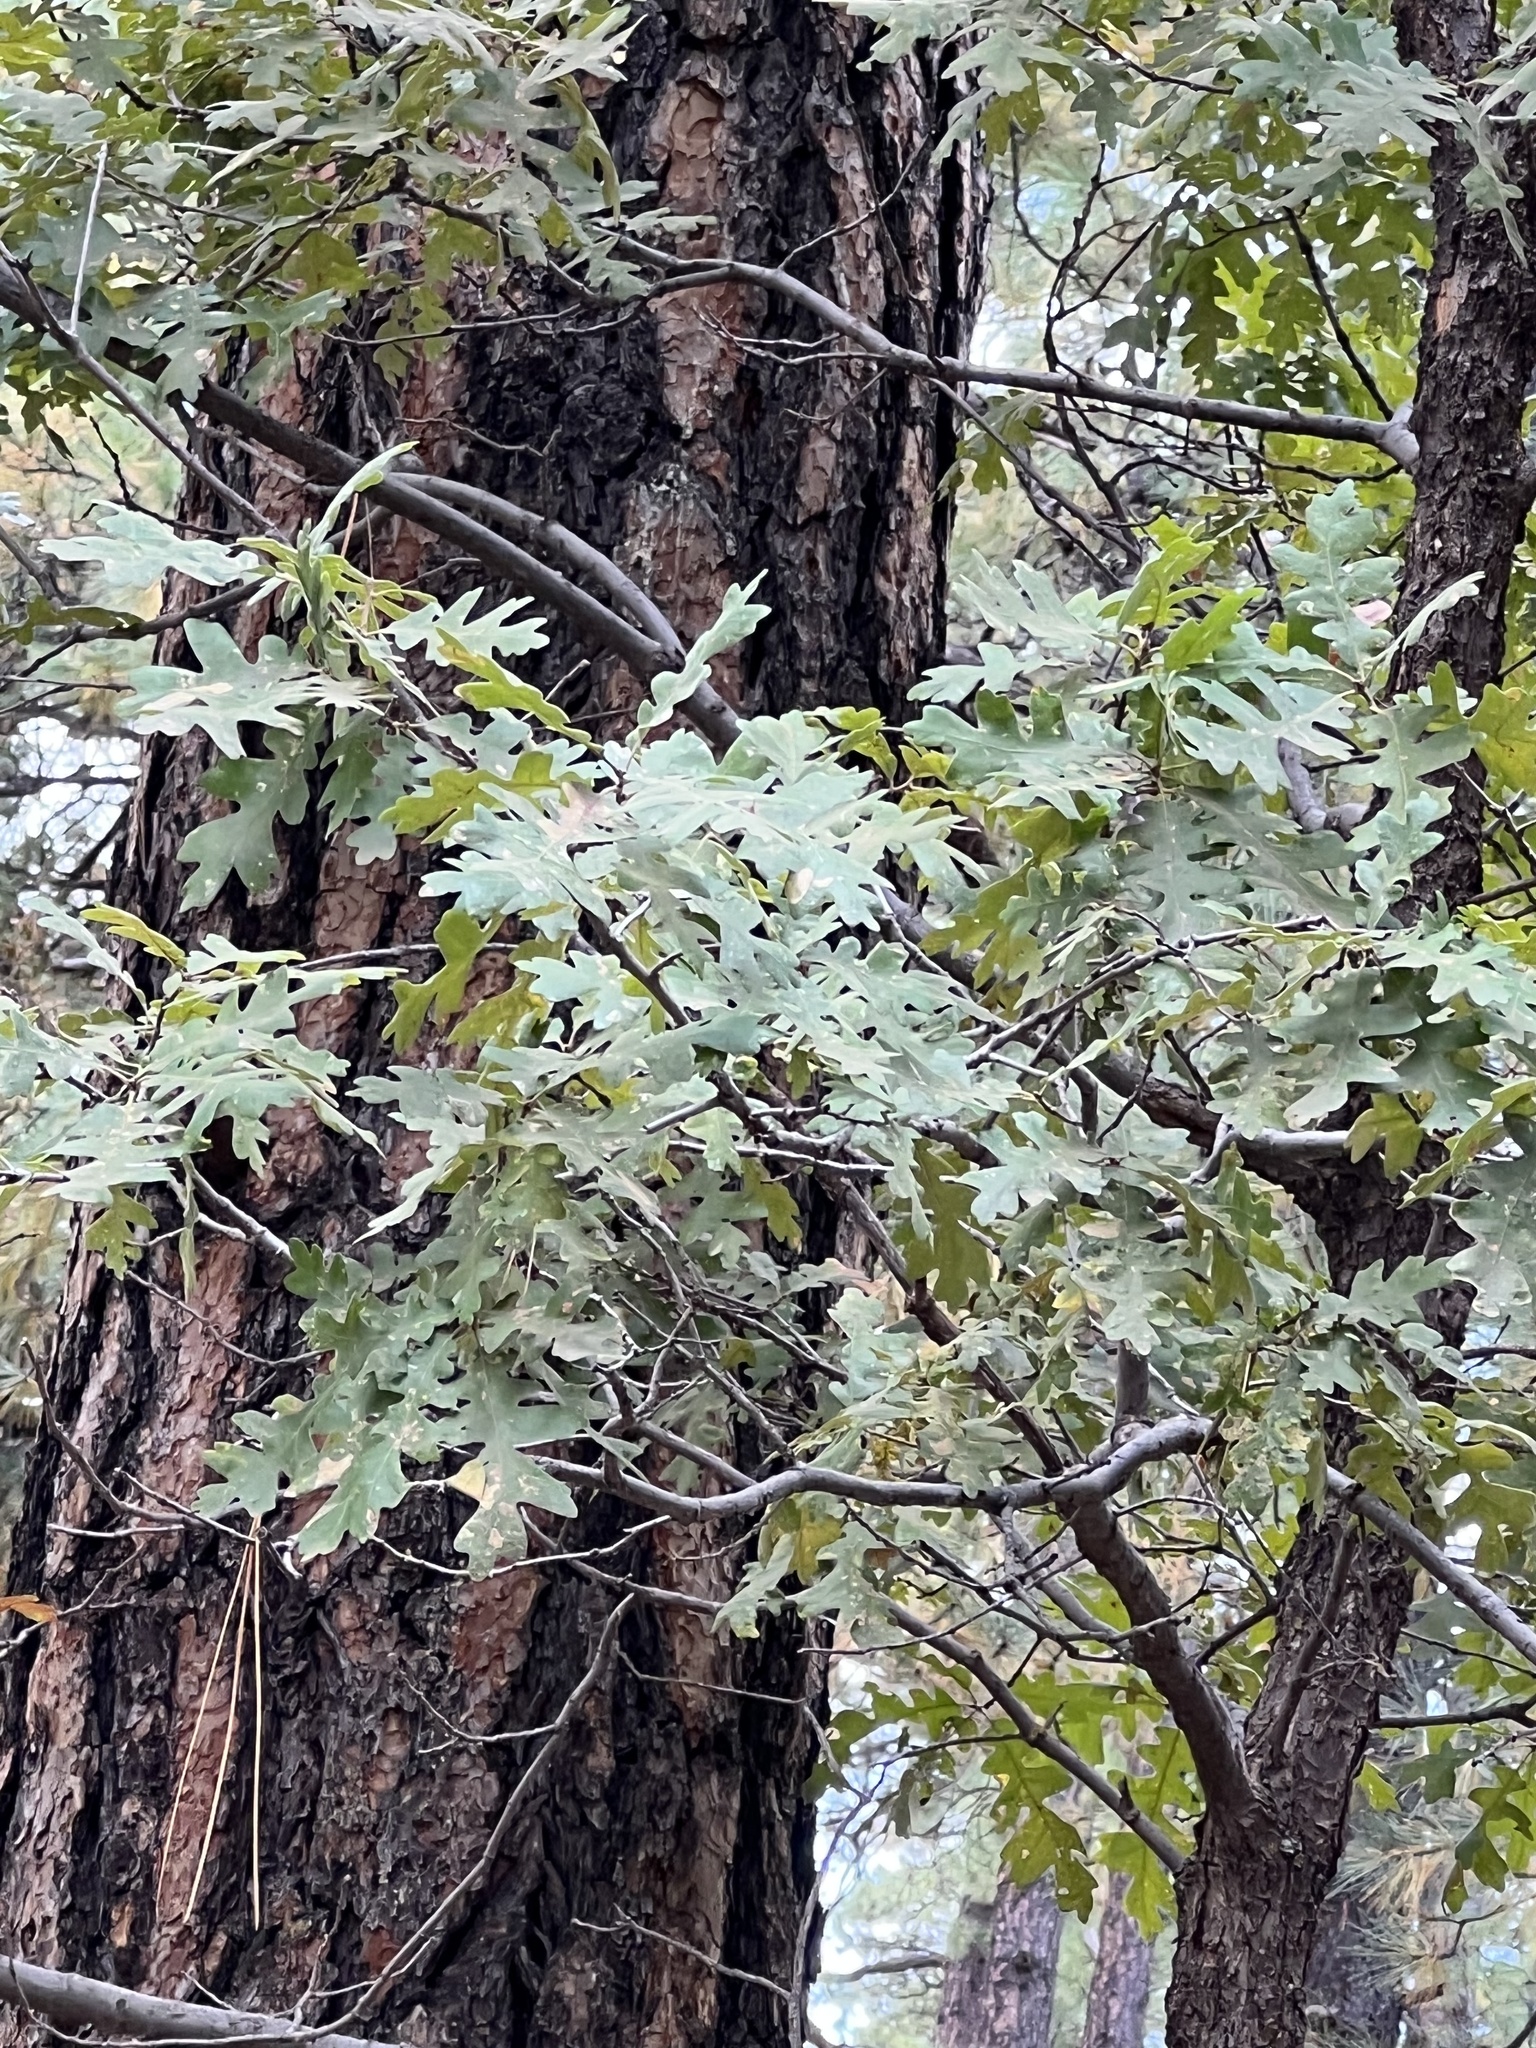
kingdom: Plantae
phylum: Tracheophyta
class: Magnoliopsida
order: Fagales
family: Fagaceae
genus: Quercus
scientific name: Quercus gambelii
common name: Gambel oak
